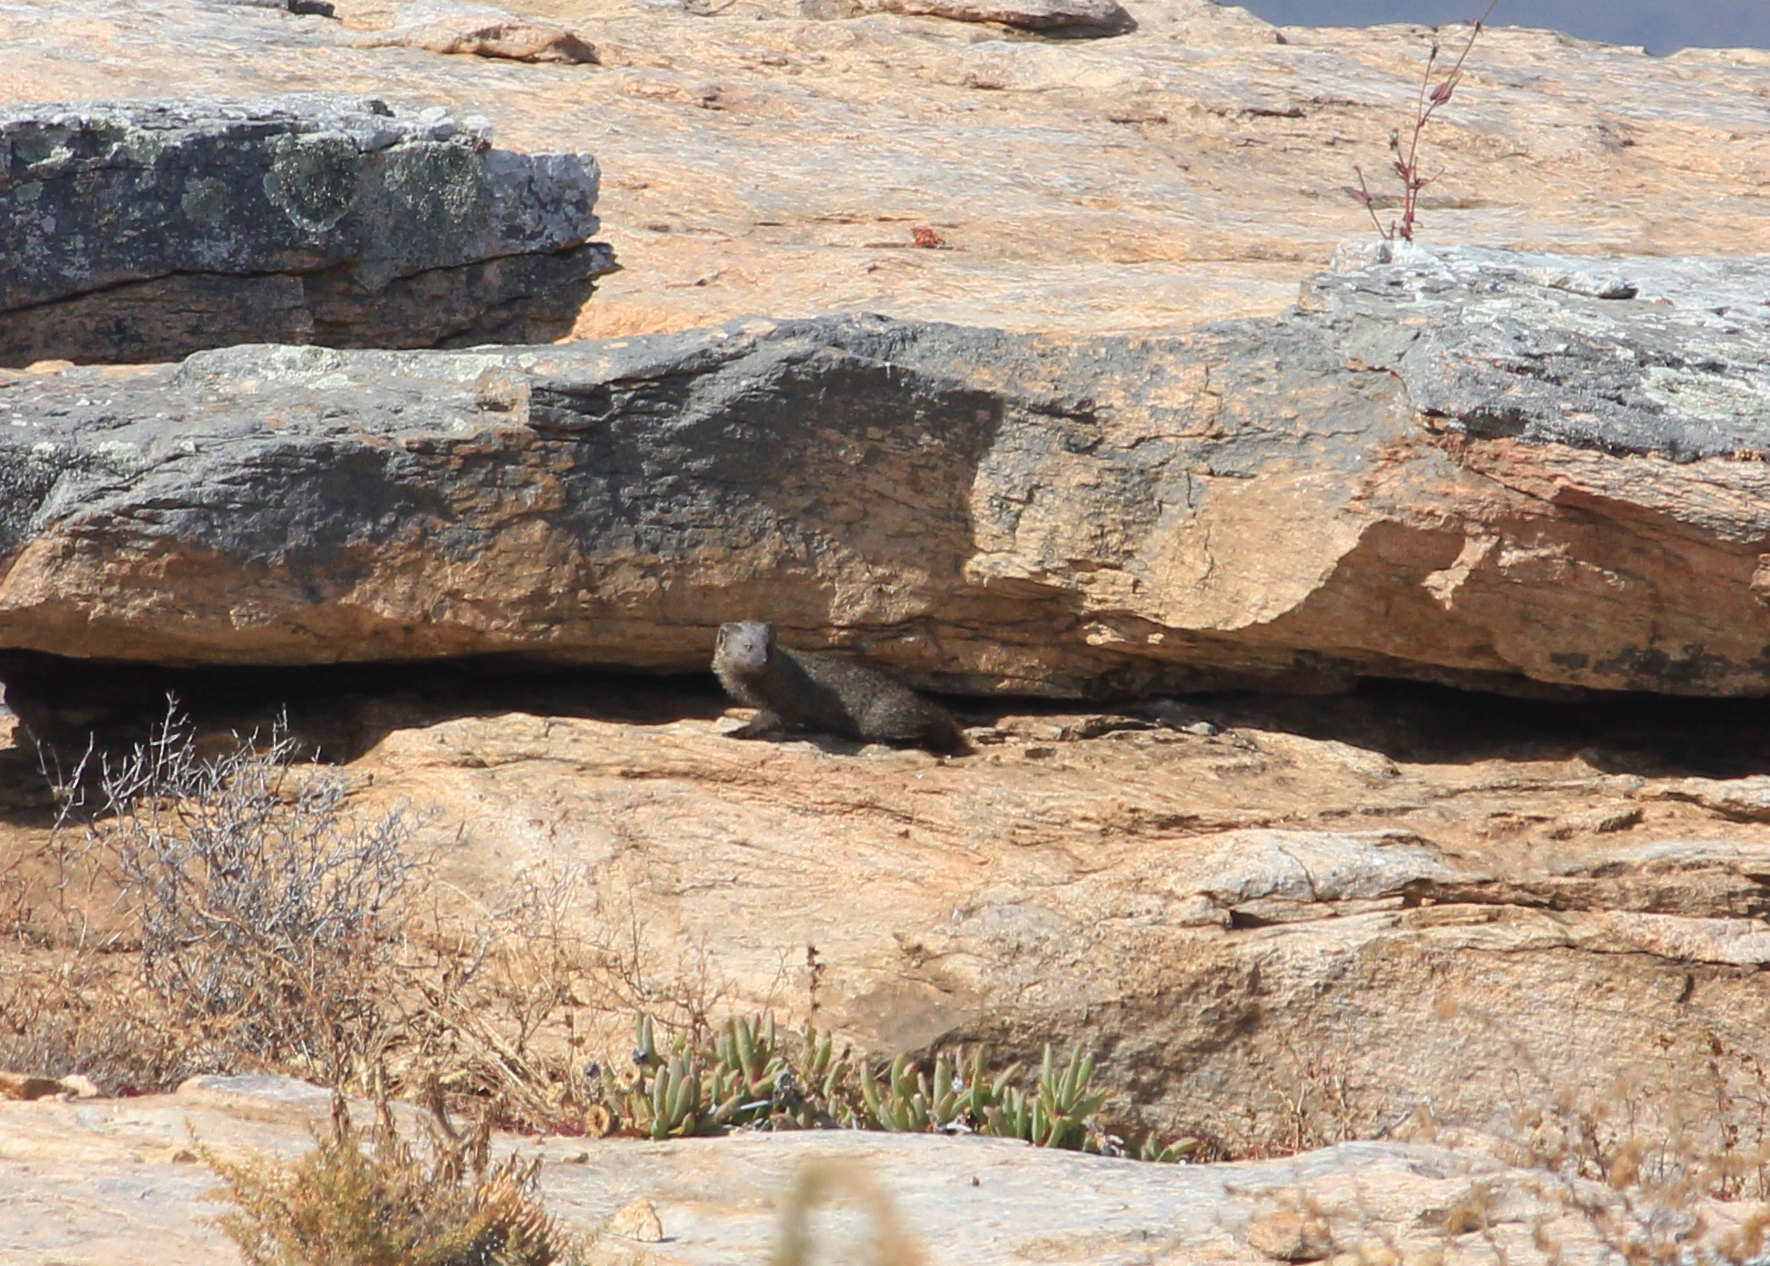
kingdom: Animalia
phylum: Chordata
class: Mammalia
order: Carnivora
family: Herpestidae
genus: Galerella
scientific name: Galerella pulverulenta
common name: Cape gray mongoose
